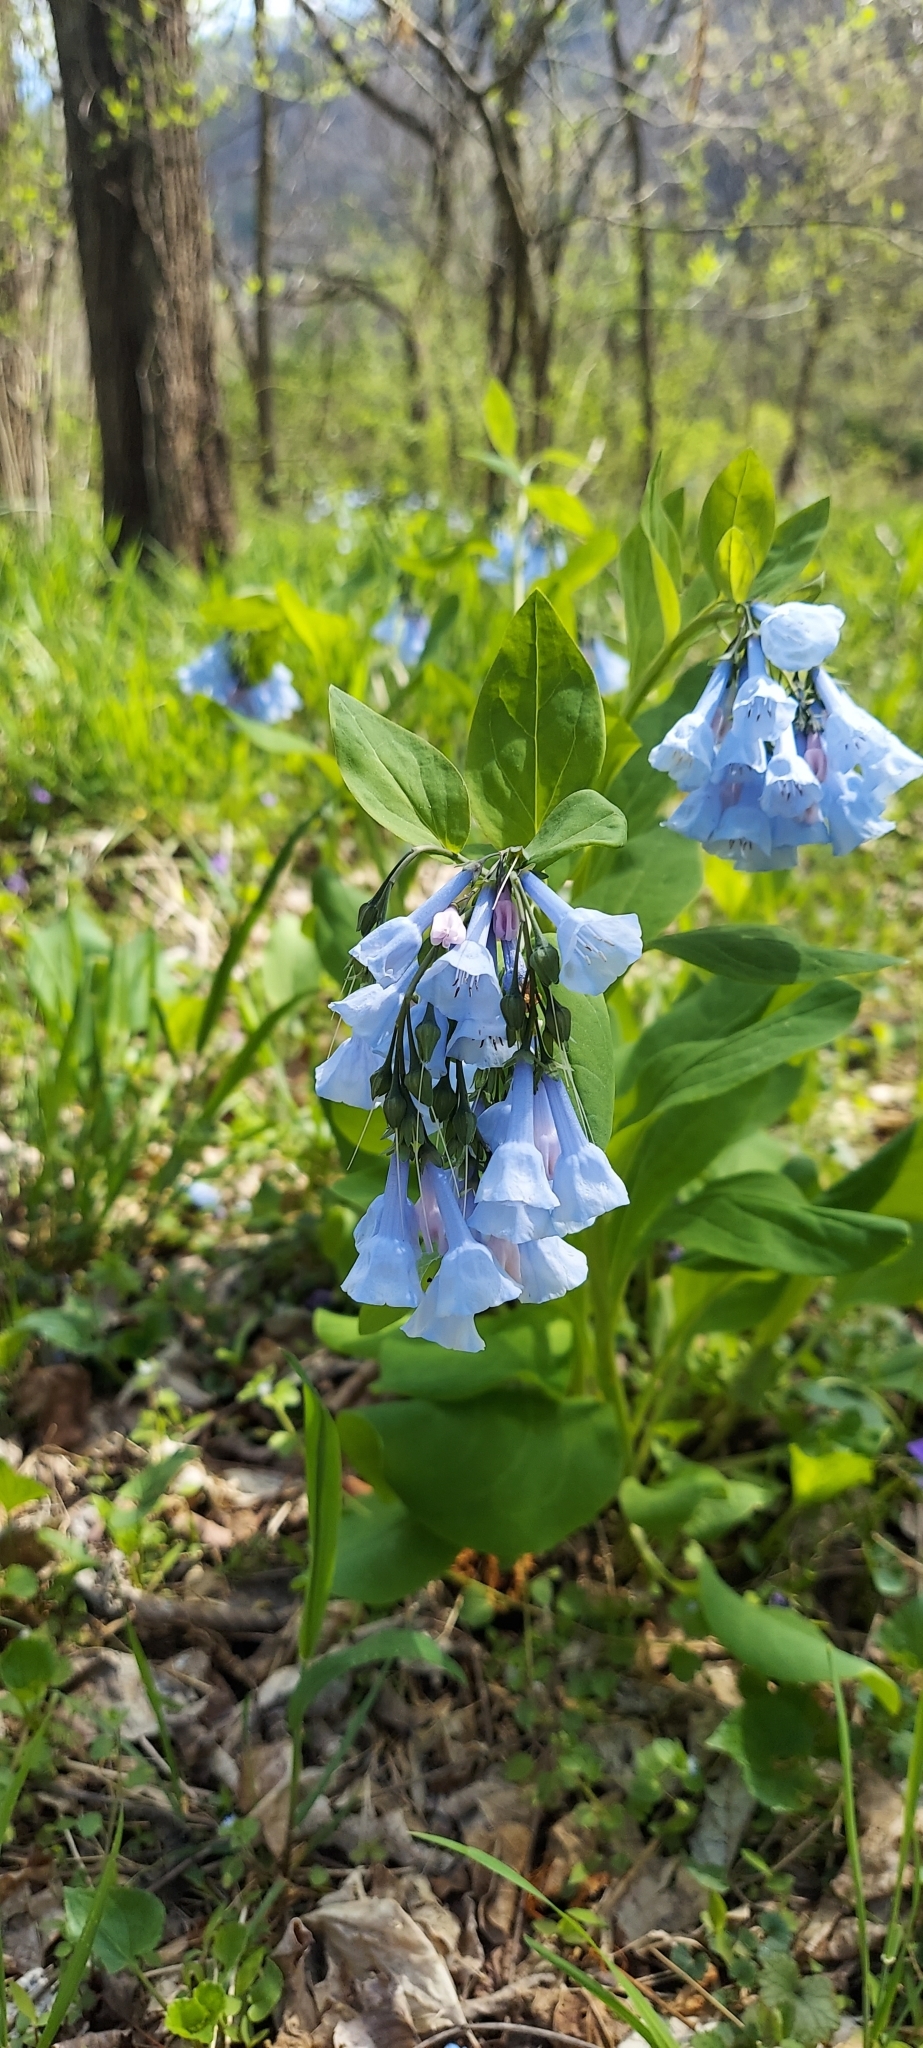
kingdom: Plantae
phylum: Tracheophyta
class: Magnoliopsida
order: Boraginales
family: Boraginaceae
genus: Mertensia
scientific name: Mertensia virginica
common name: Virginia bluebells
